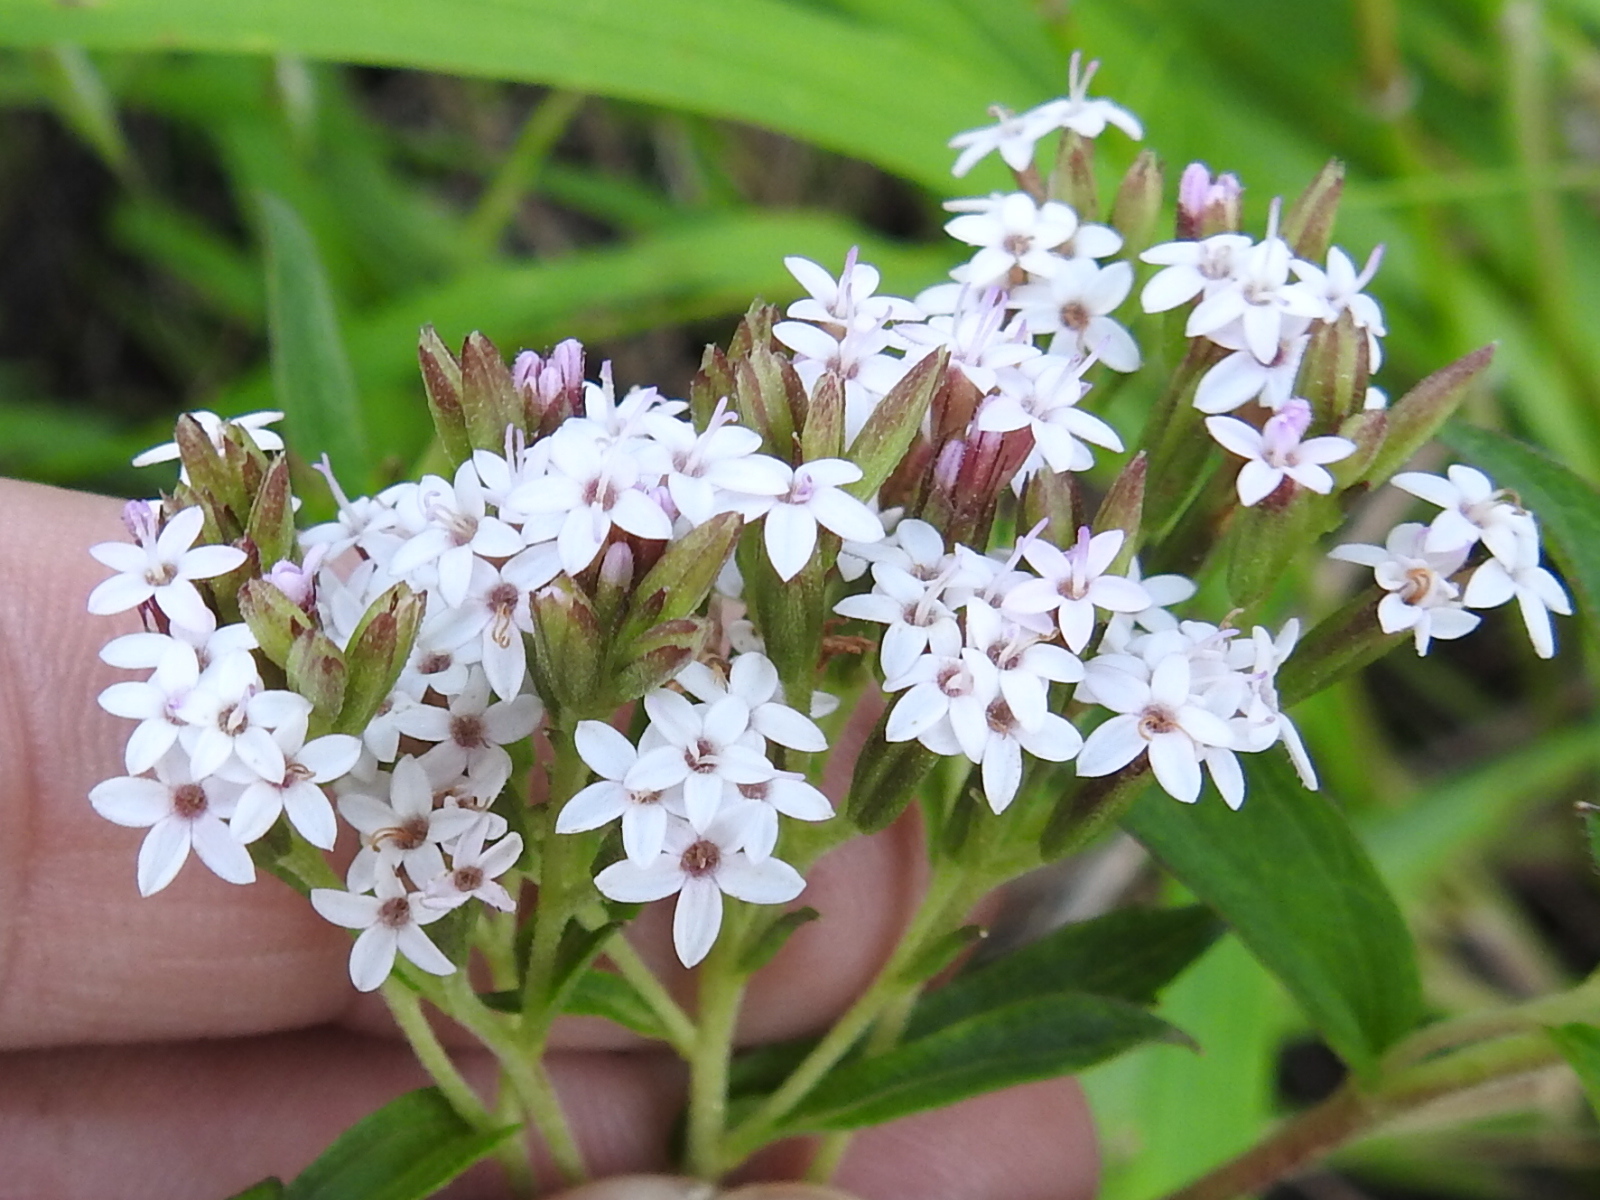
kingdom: Plantae
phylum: Tracheophyta
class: Magnoliopsida
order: Asterales
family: Asteraceae
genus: Stevia
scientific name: Stevia serrata
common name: Sawtooth candyleaf
